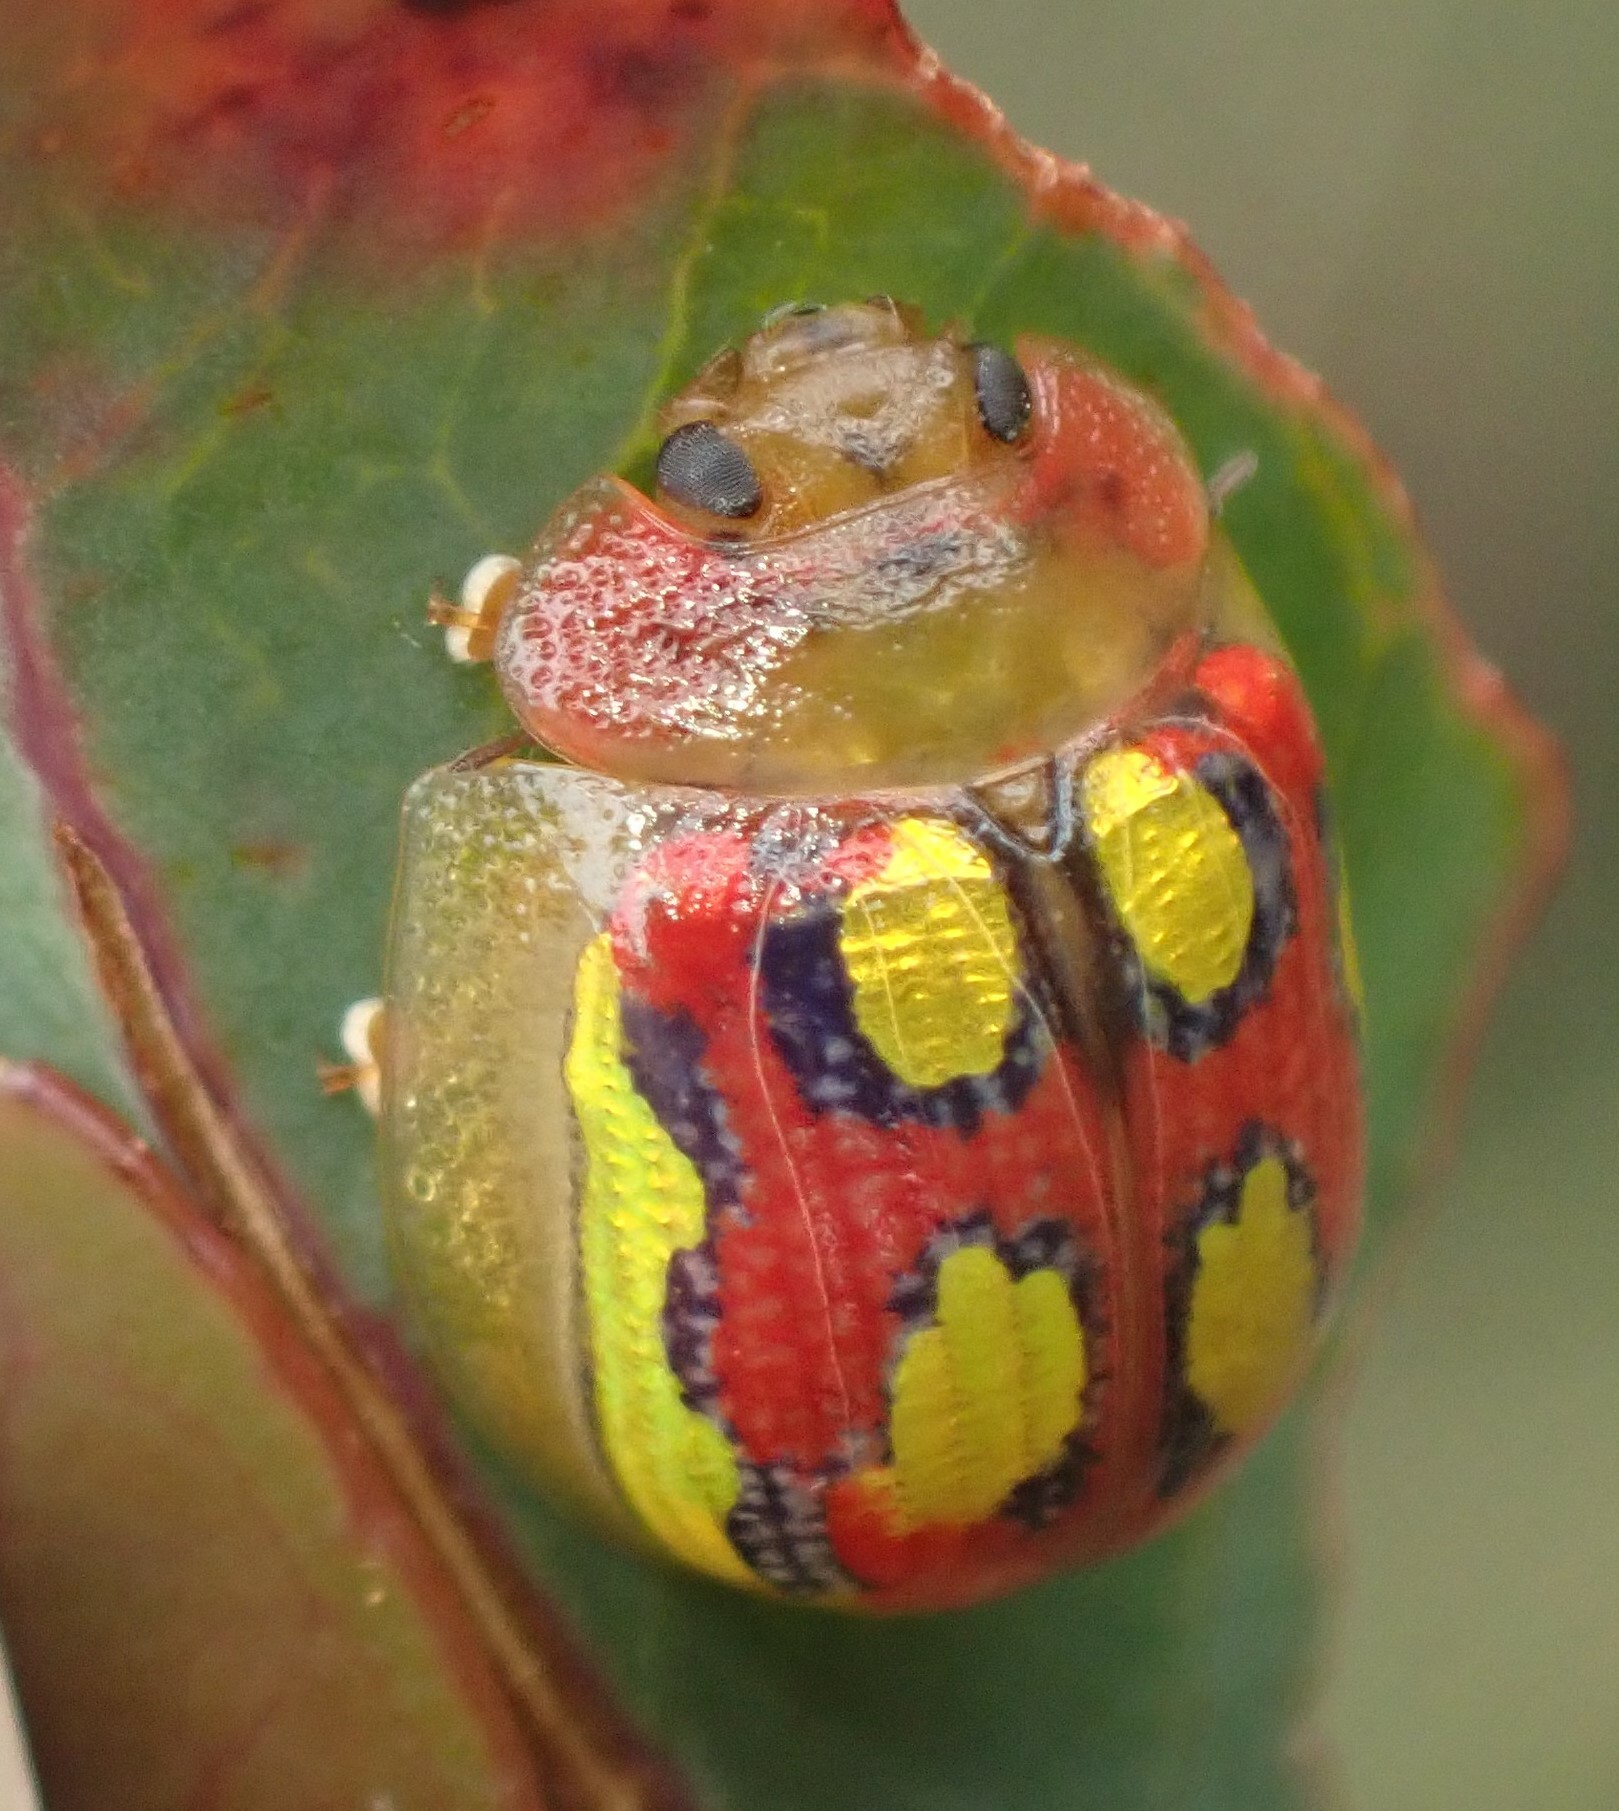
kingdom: Animalia
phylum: Arthropoda
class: Insecta
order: Coleoptera
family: Chrysomelidae
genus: Paropsisterna
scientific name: Paropsisterna
